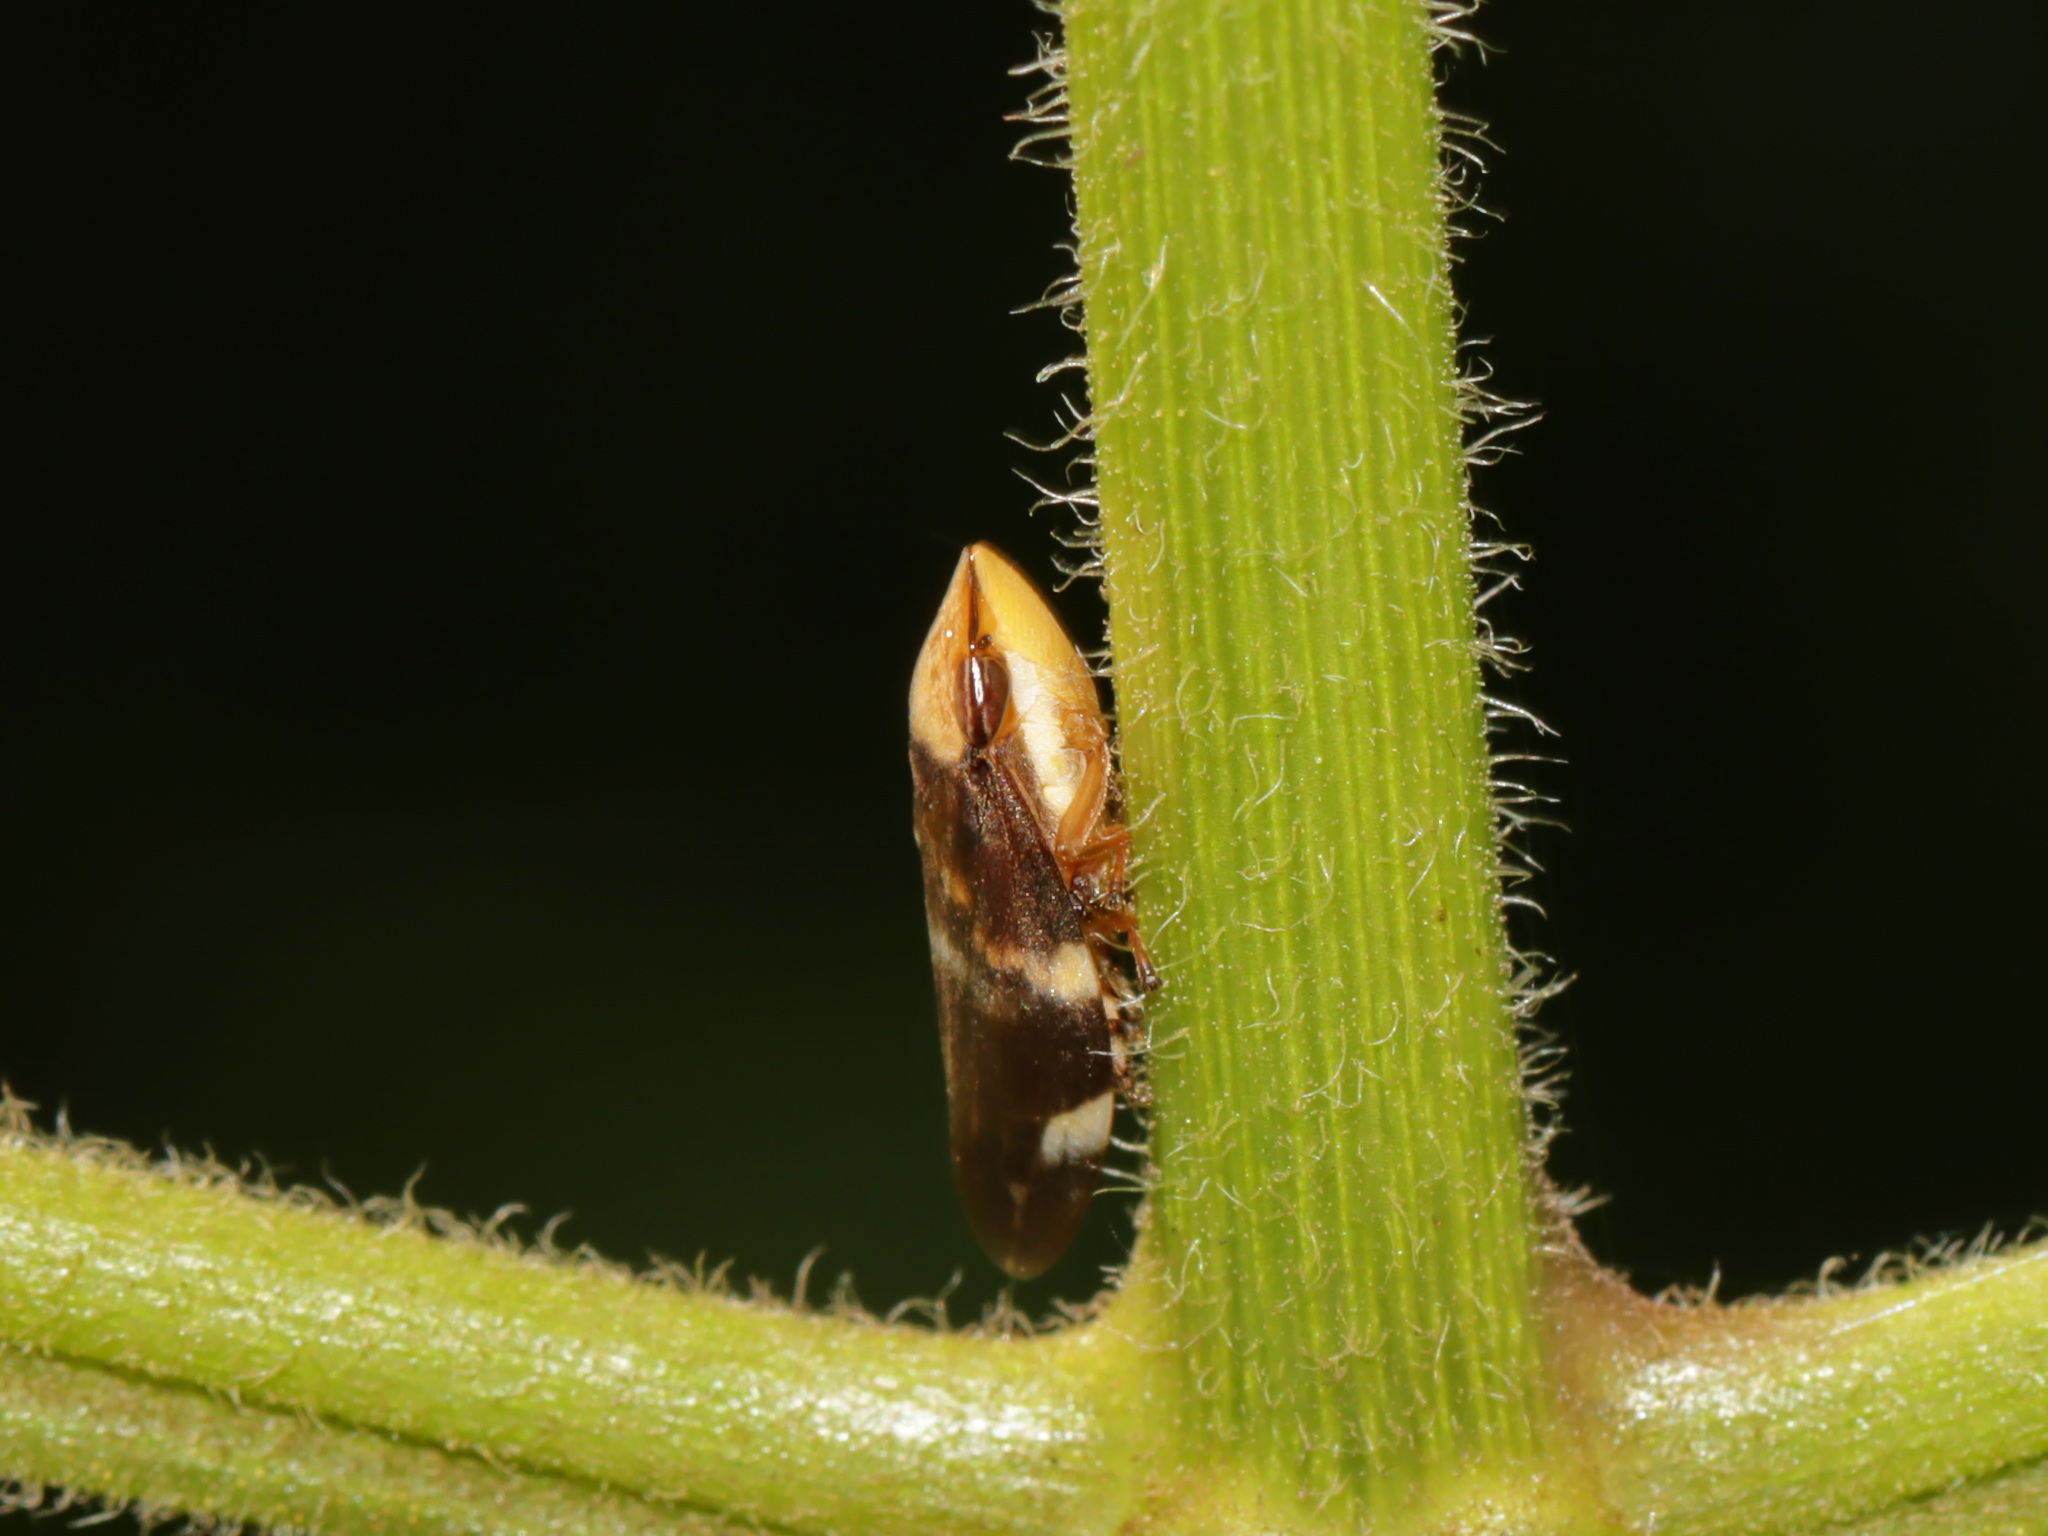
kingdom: Animalia
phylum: Arthropoda
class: Insecta
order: Hemiptera
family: Aphrophoridae
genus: Ptyelinellus
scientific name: Ptyelinellus praefractus
